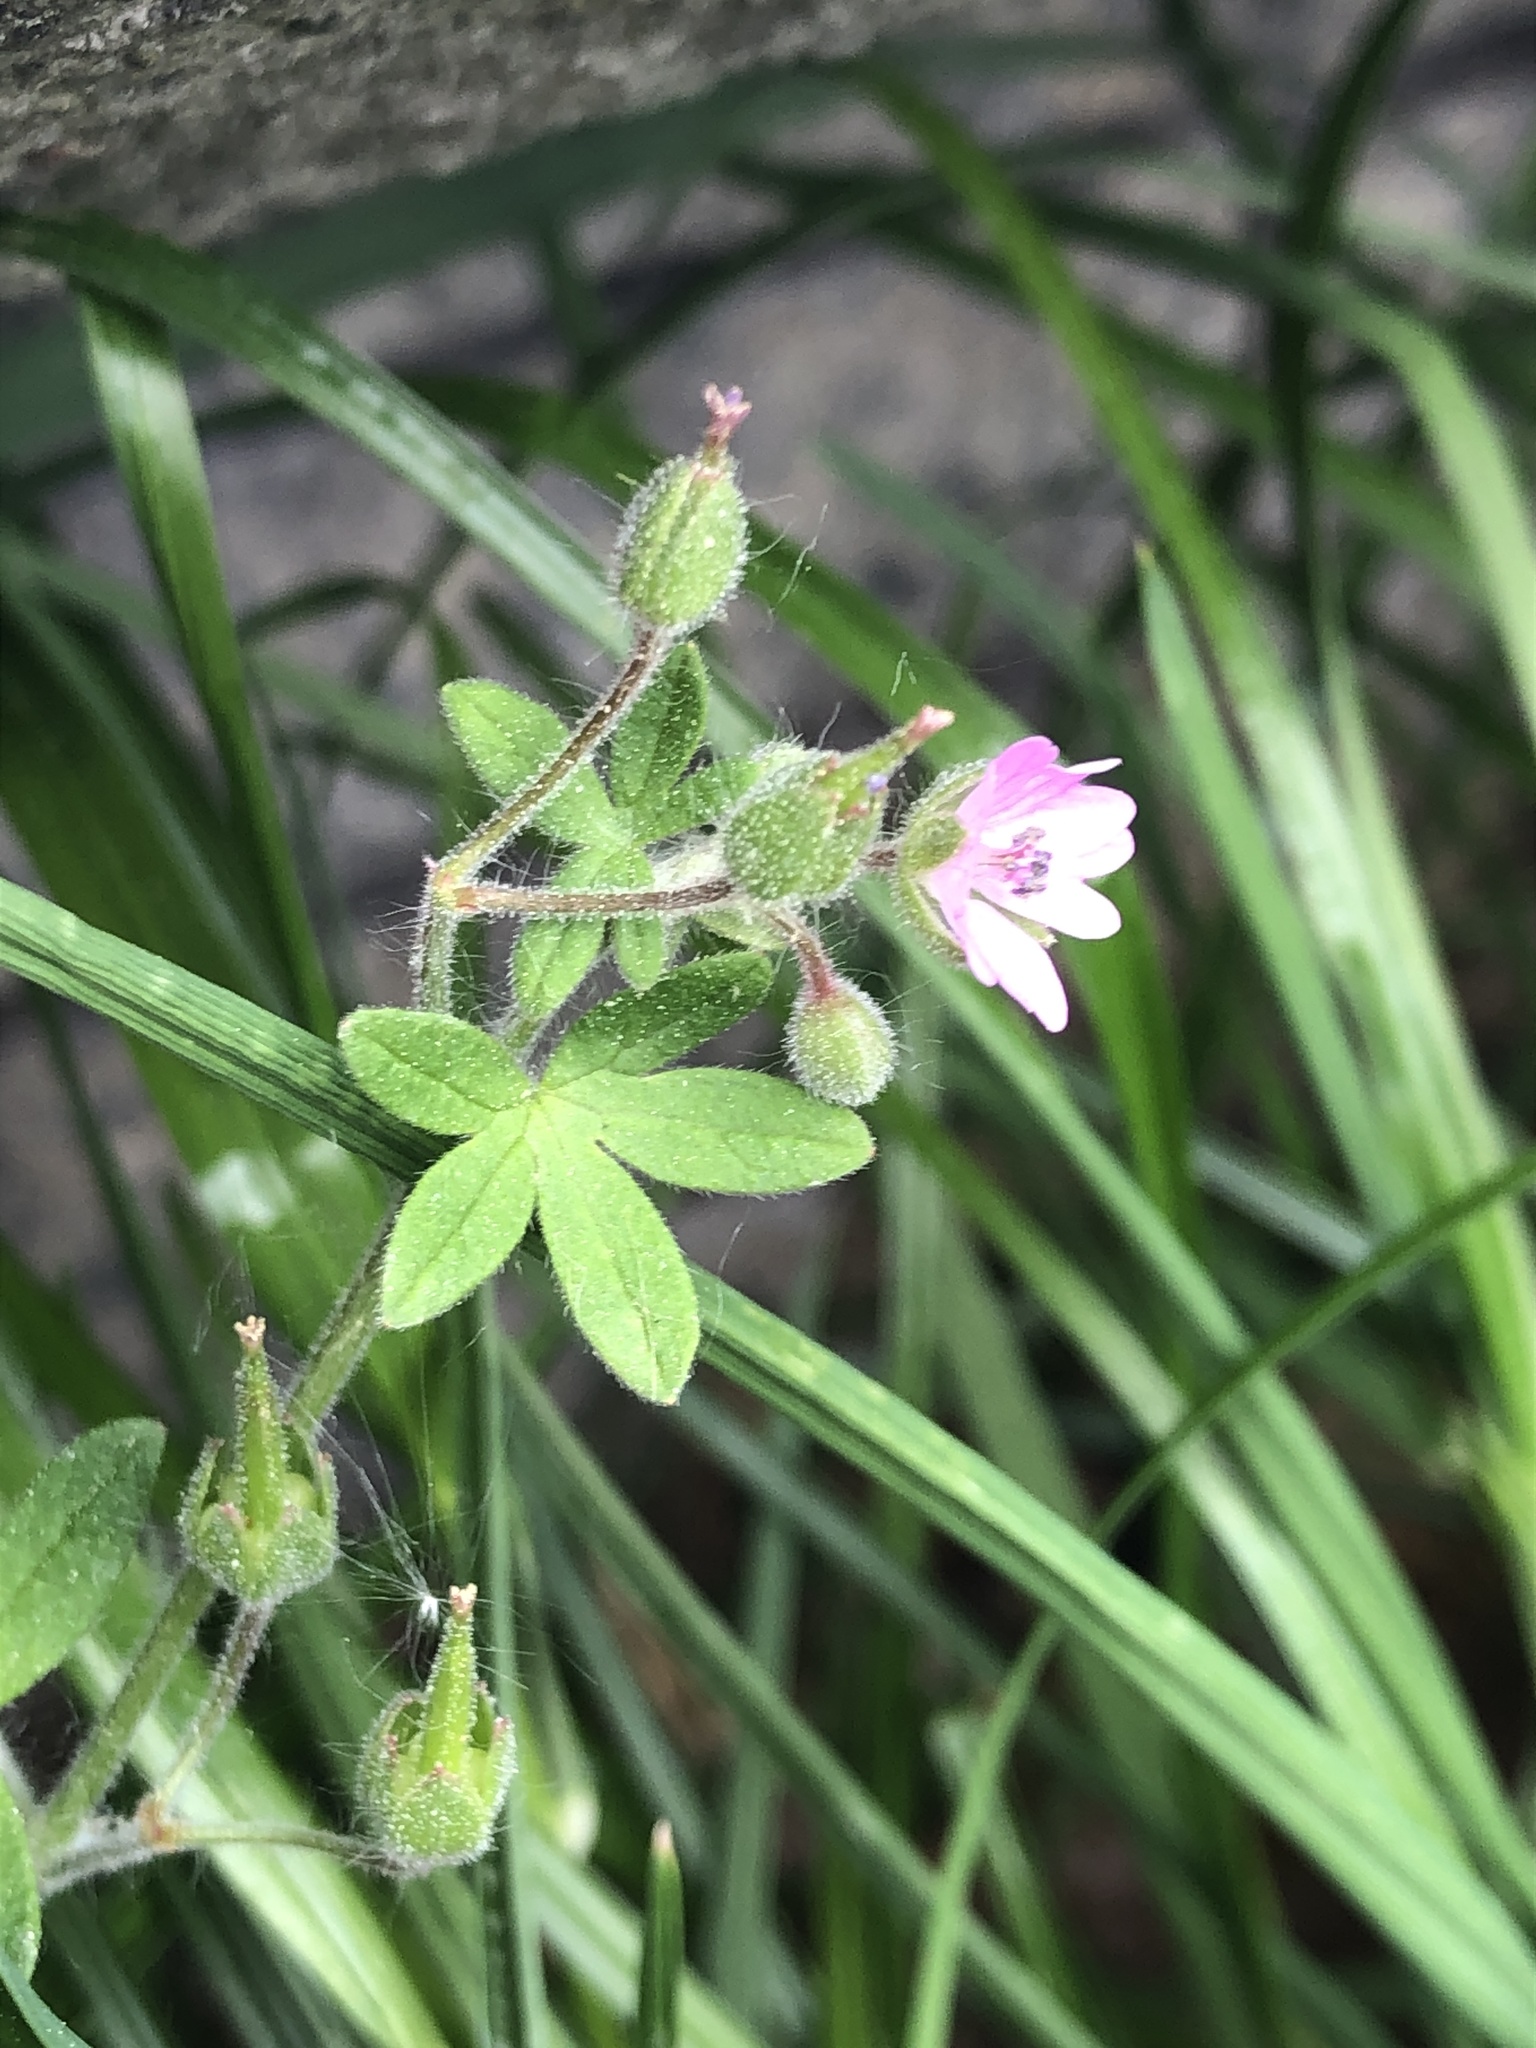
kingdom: Plantae
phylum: Tracheophyta
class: Magnoliopsida
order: Geraniales
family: Geraniaceae
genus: Geranium
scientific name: Geranium pusillum
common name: Small geranium
